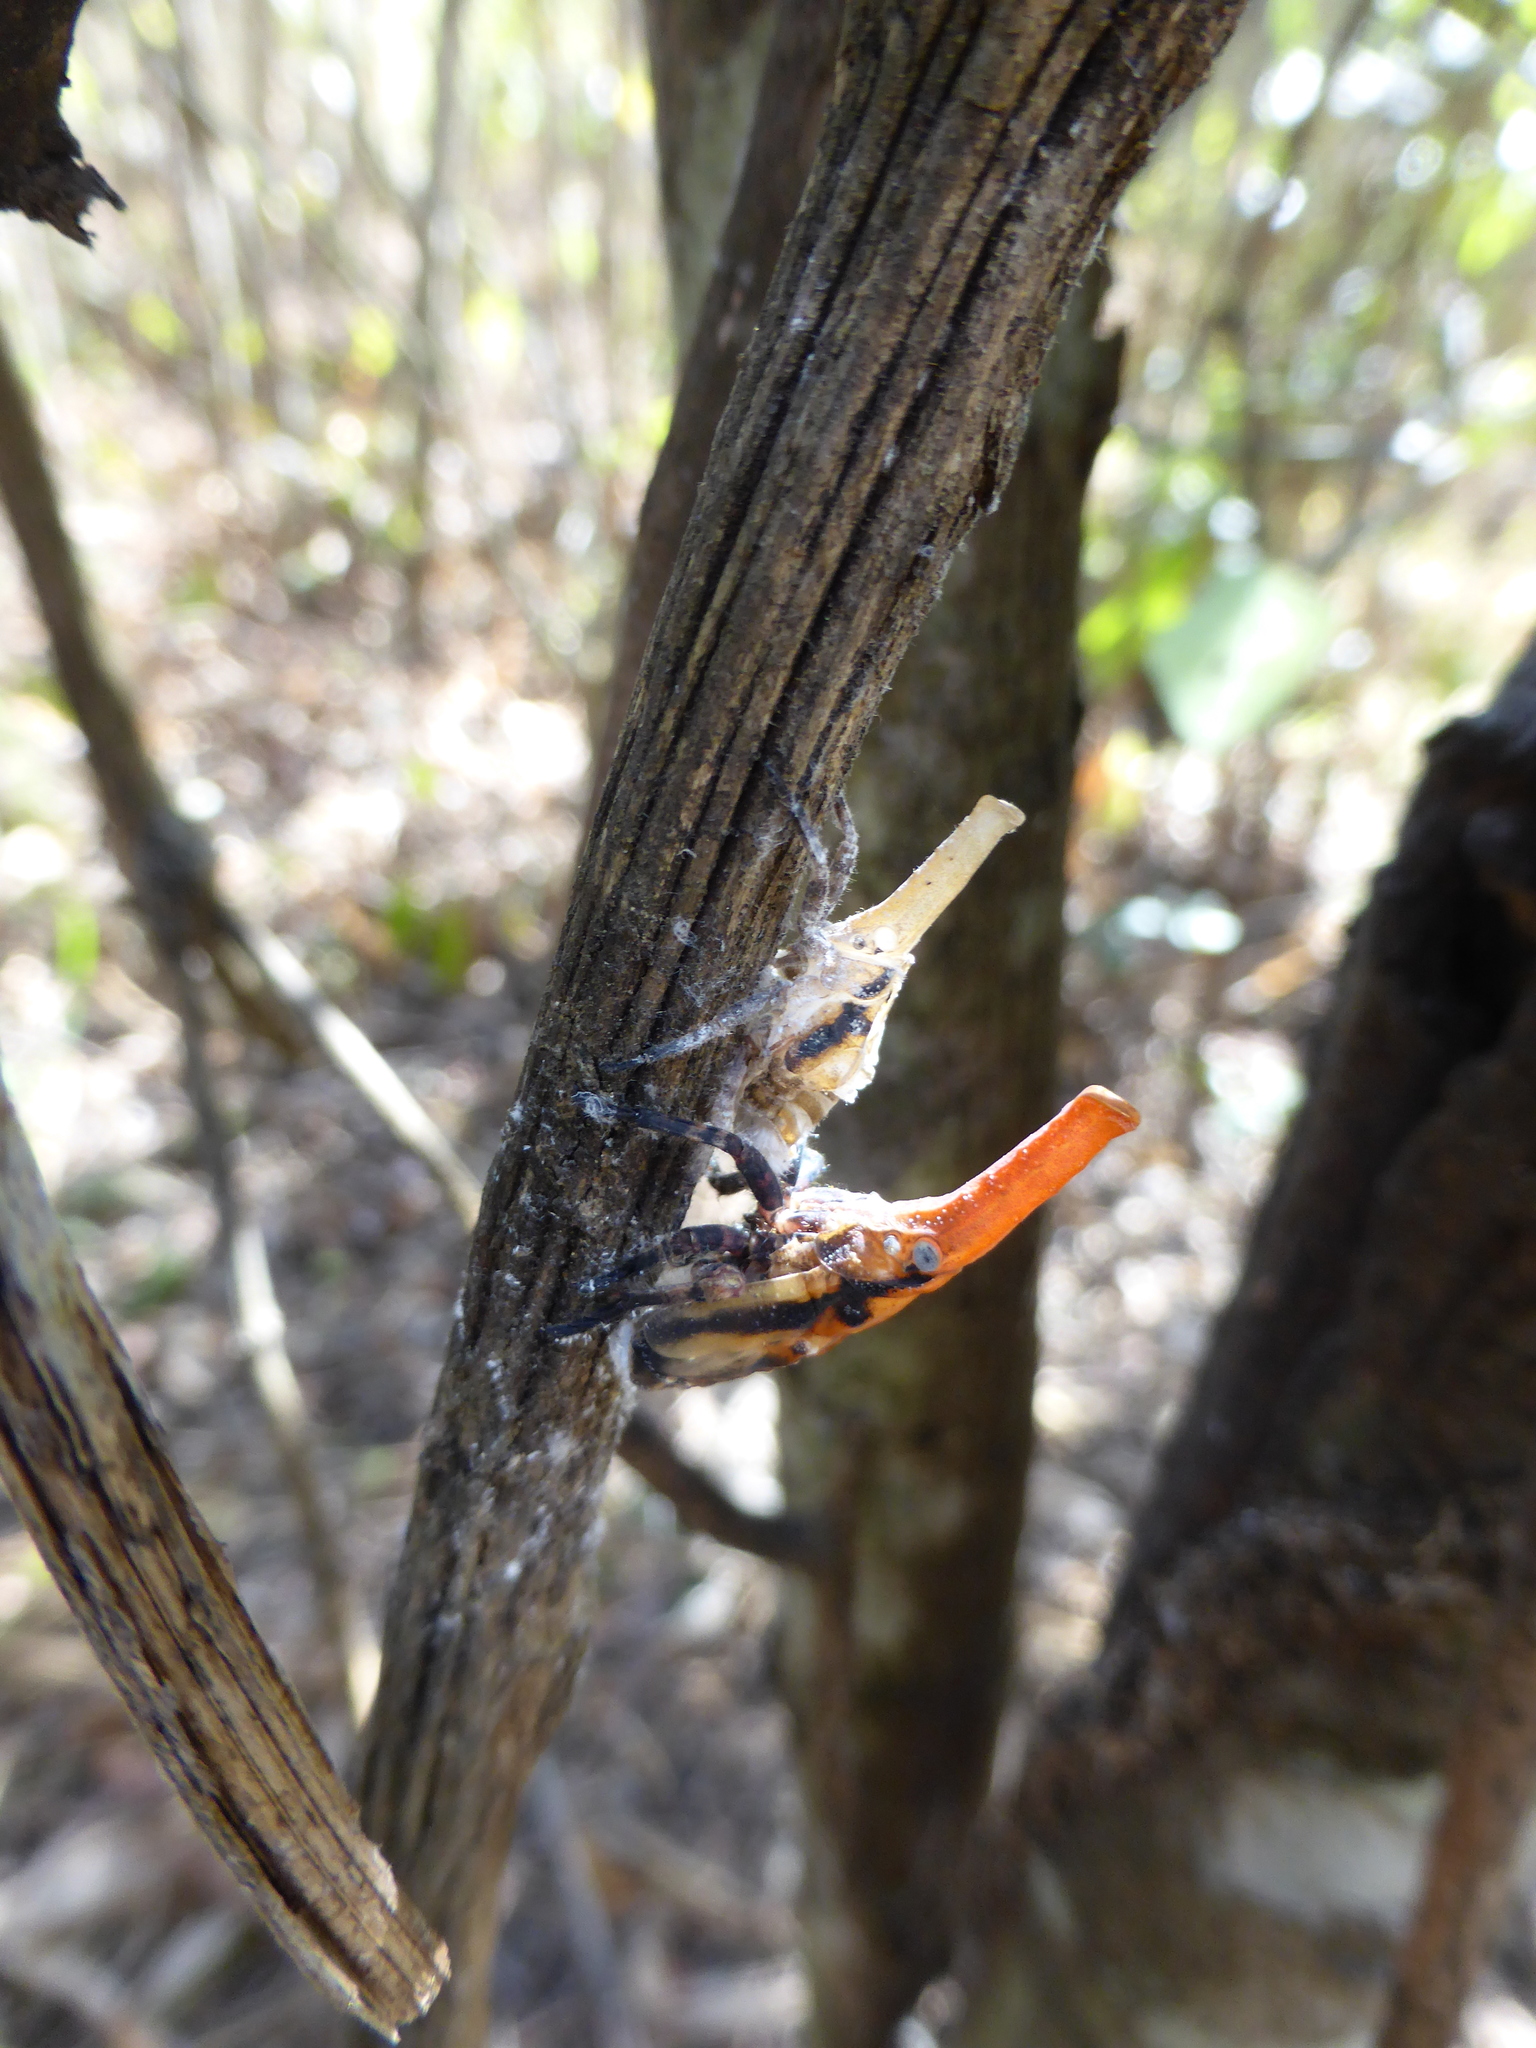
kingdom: Animalia
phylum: Arthropoda
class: Insecta
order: Hemiptera
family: Fulgoridae
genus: Zanna
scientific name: Zanna tenebrosa
